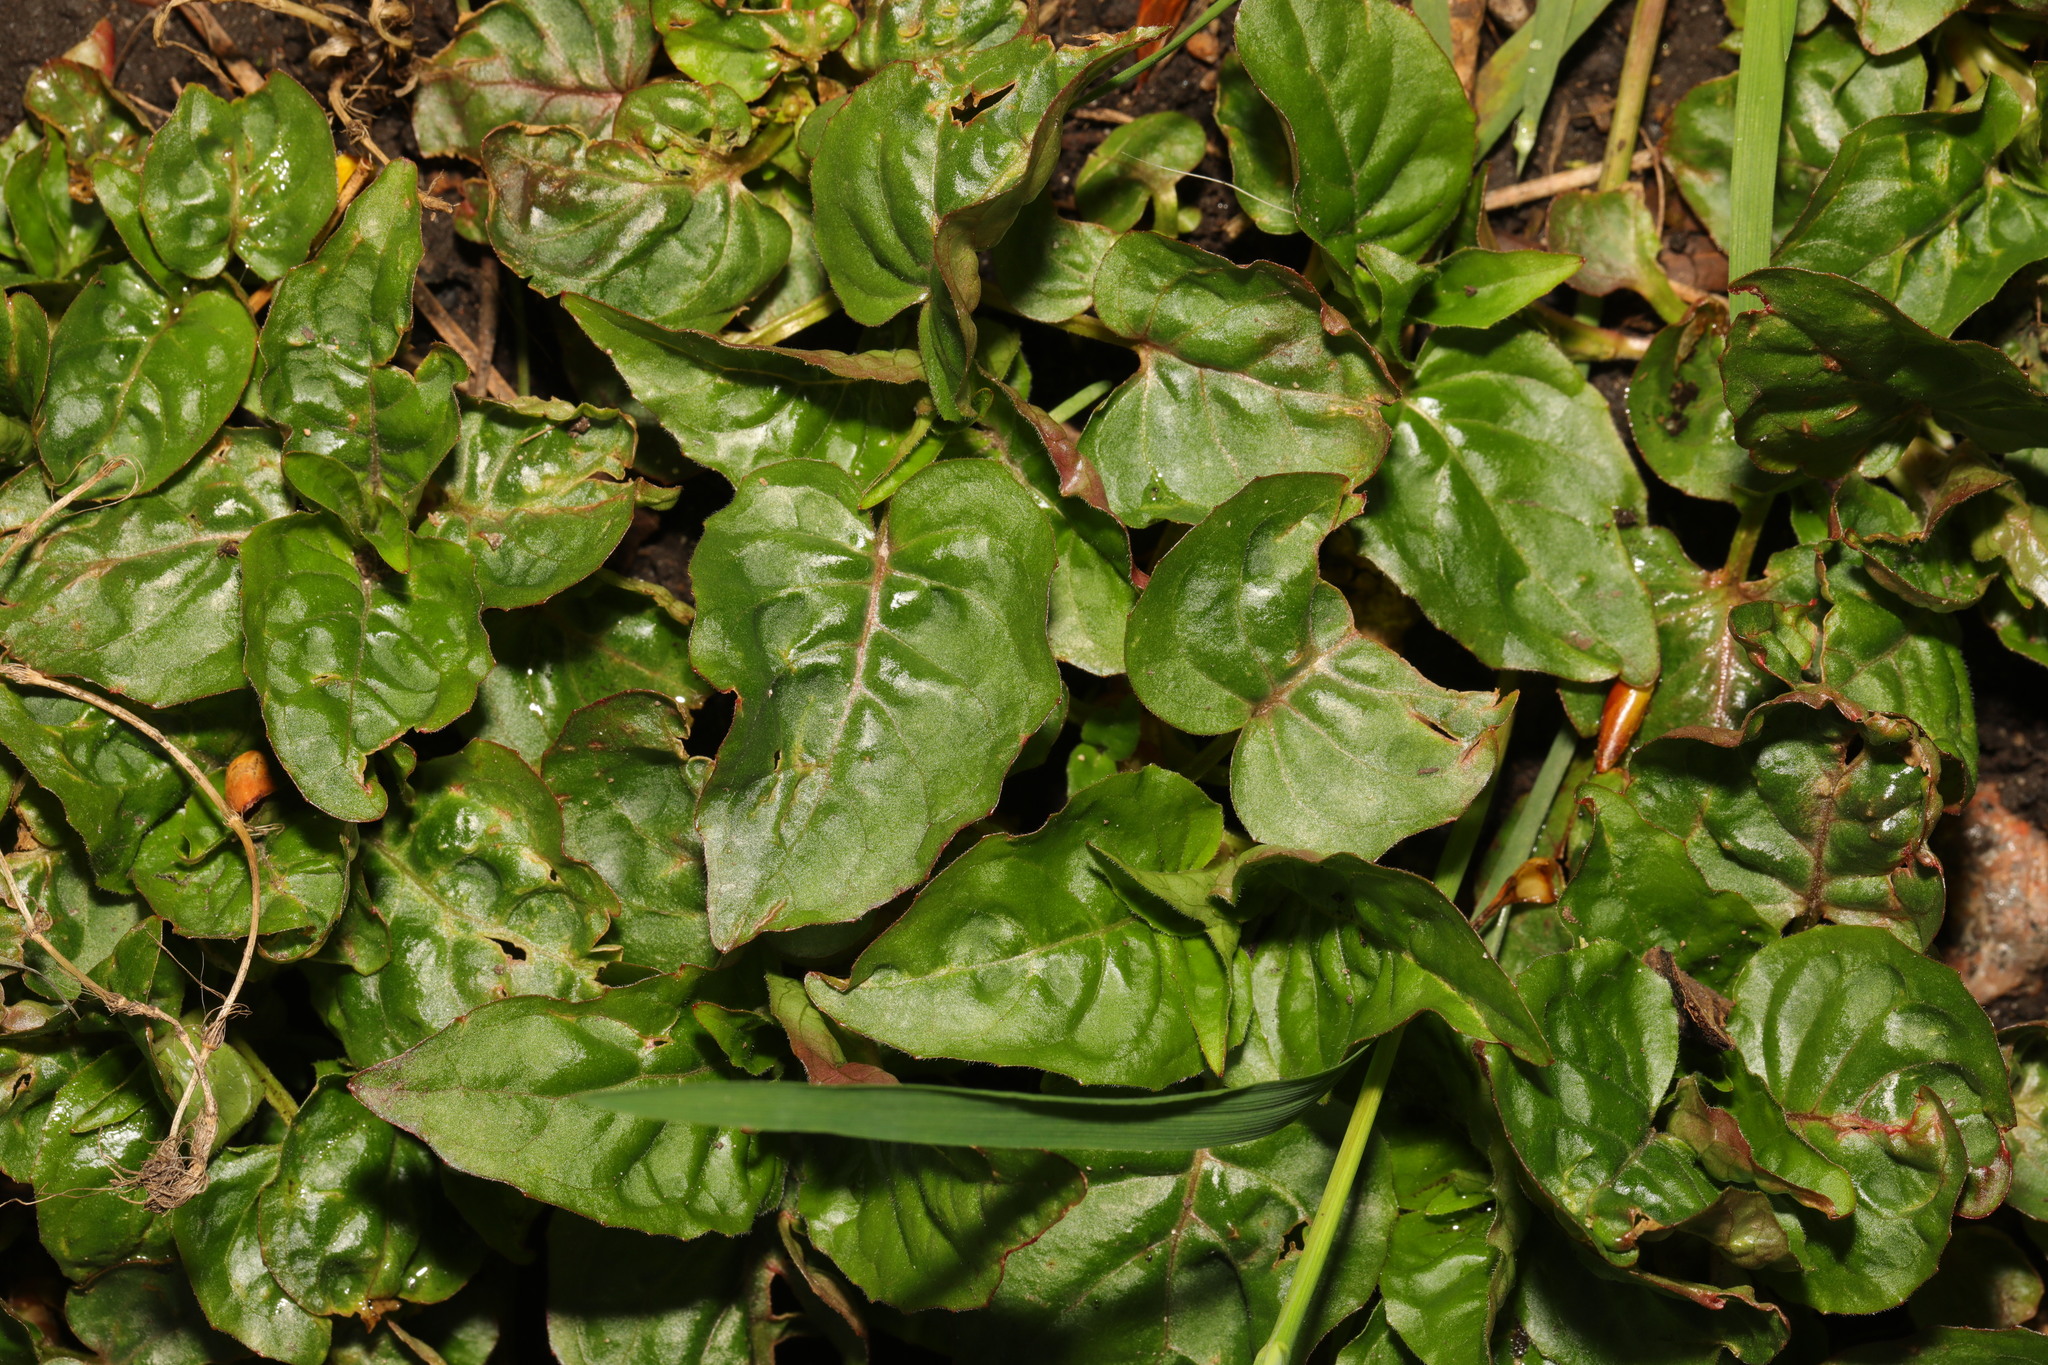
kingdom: Plantae
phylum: Tracheophyta
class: Magnoliopsida
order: Myrtales
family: Onagraceae
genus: Circaea
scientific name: Circaea lutetiana
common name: Enchanter's-nightshade
